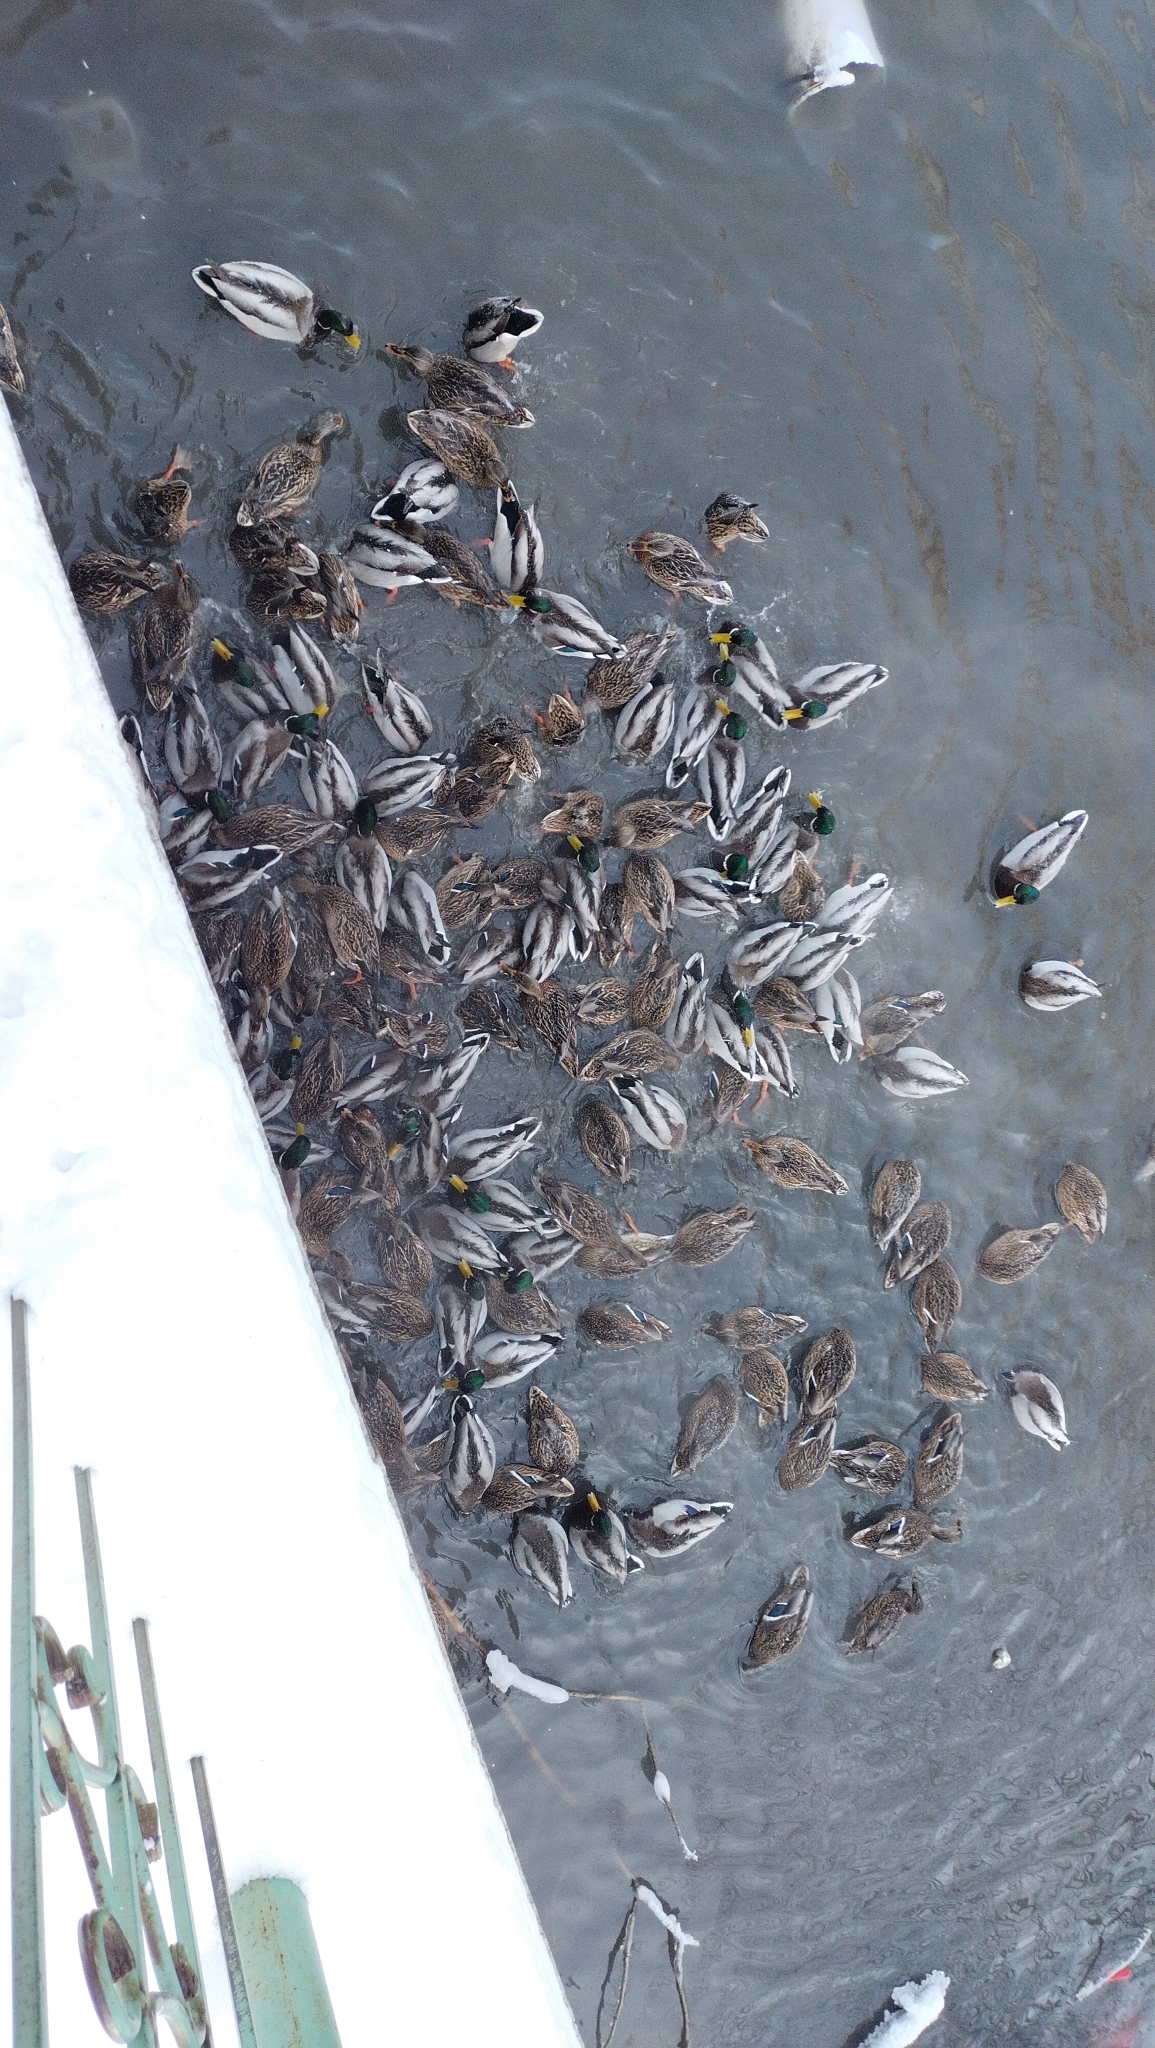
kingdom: Animalia
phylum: Chordata
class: Aves
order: Anseriformes
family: Anatidae
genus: Anas
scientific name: Anas platyrhynchos
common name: Mallard
